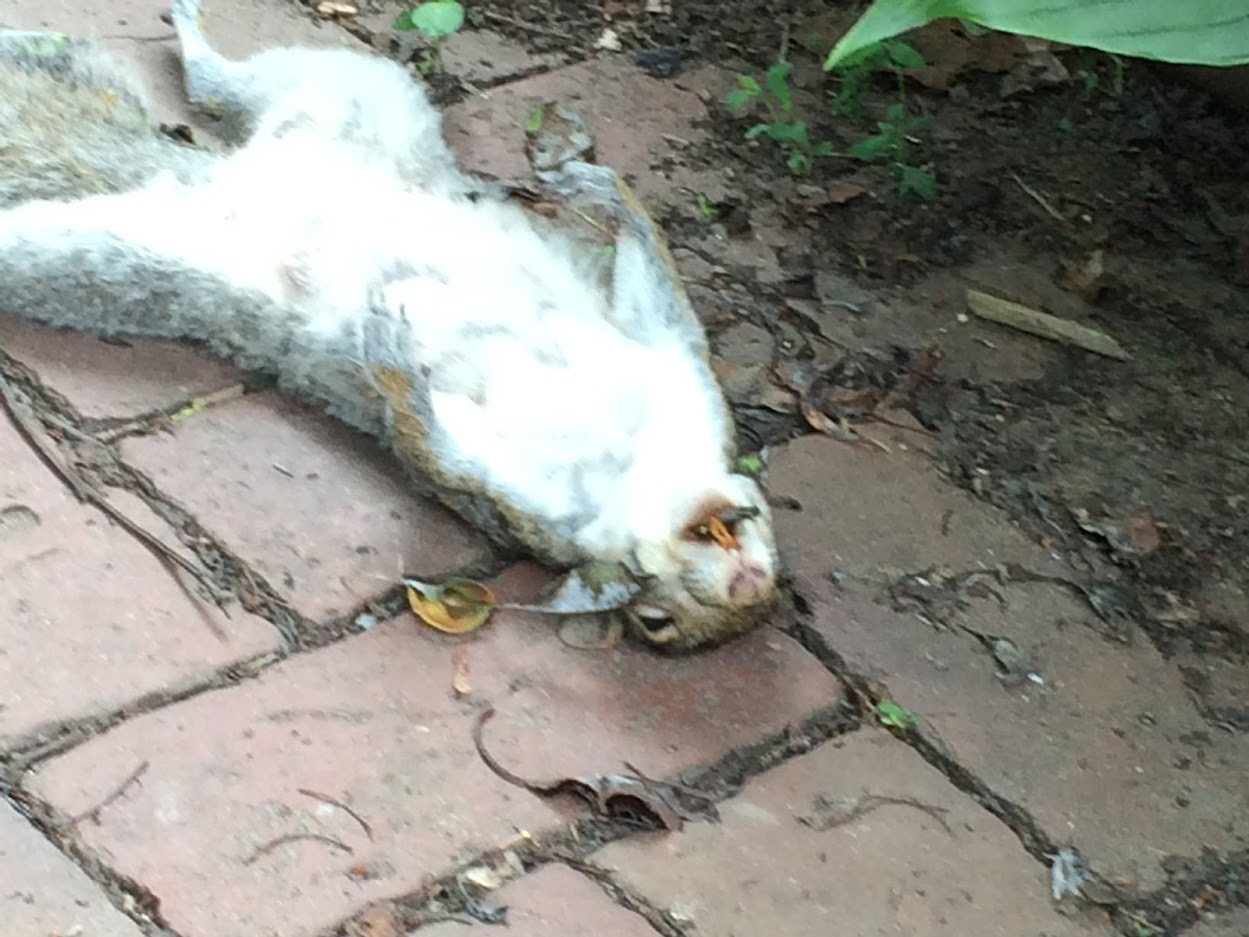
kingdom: Animalia
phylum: Chordata
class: Mammalia
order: Rodentia
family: Sciuridae
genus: Sciurus
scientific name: Sciurus carolinensis
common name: Eastern gray squirrel
